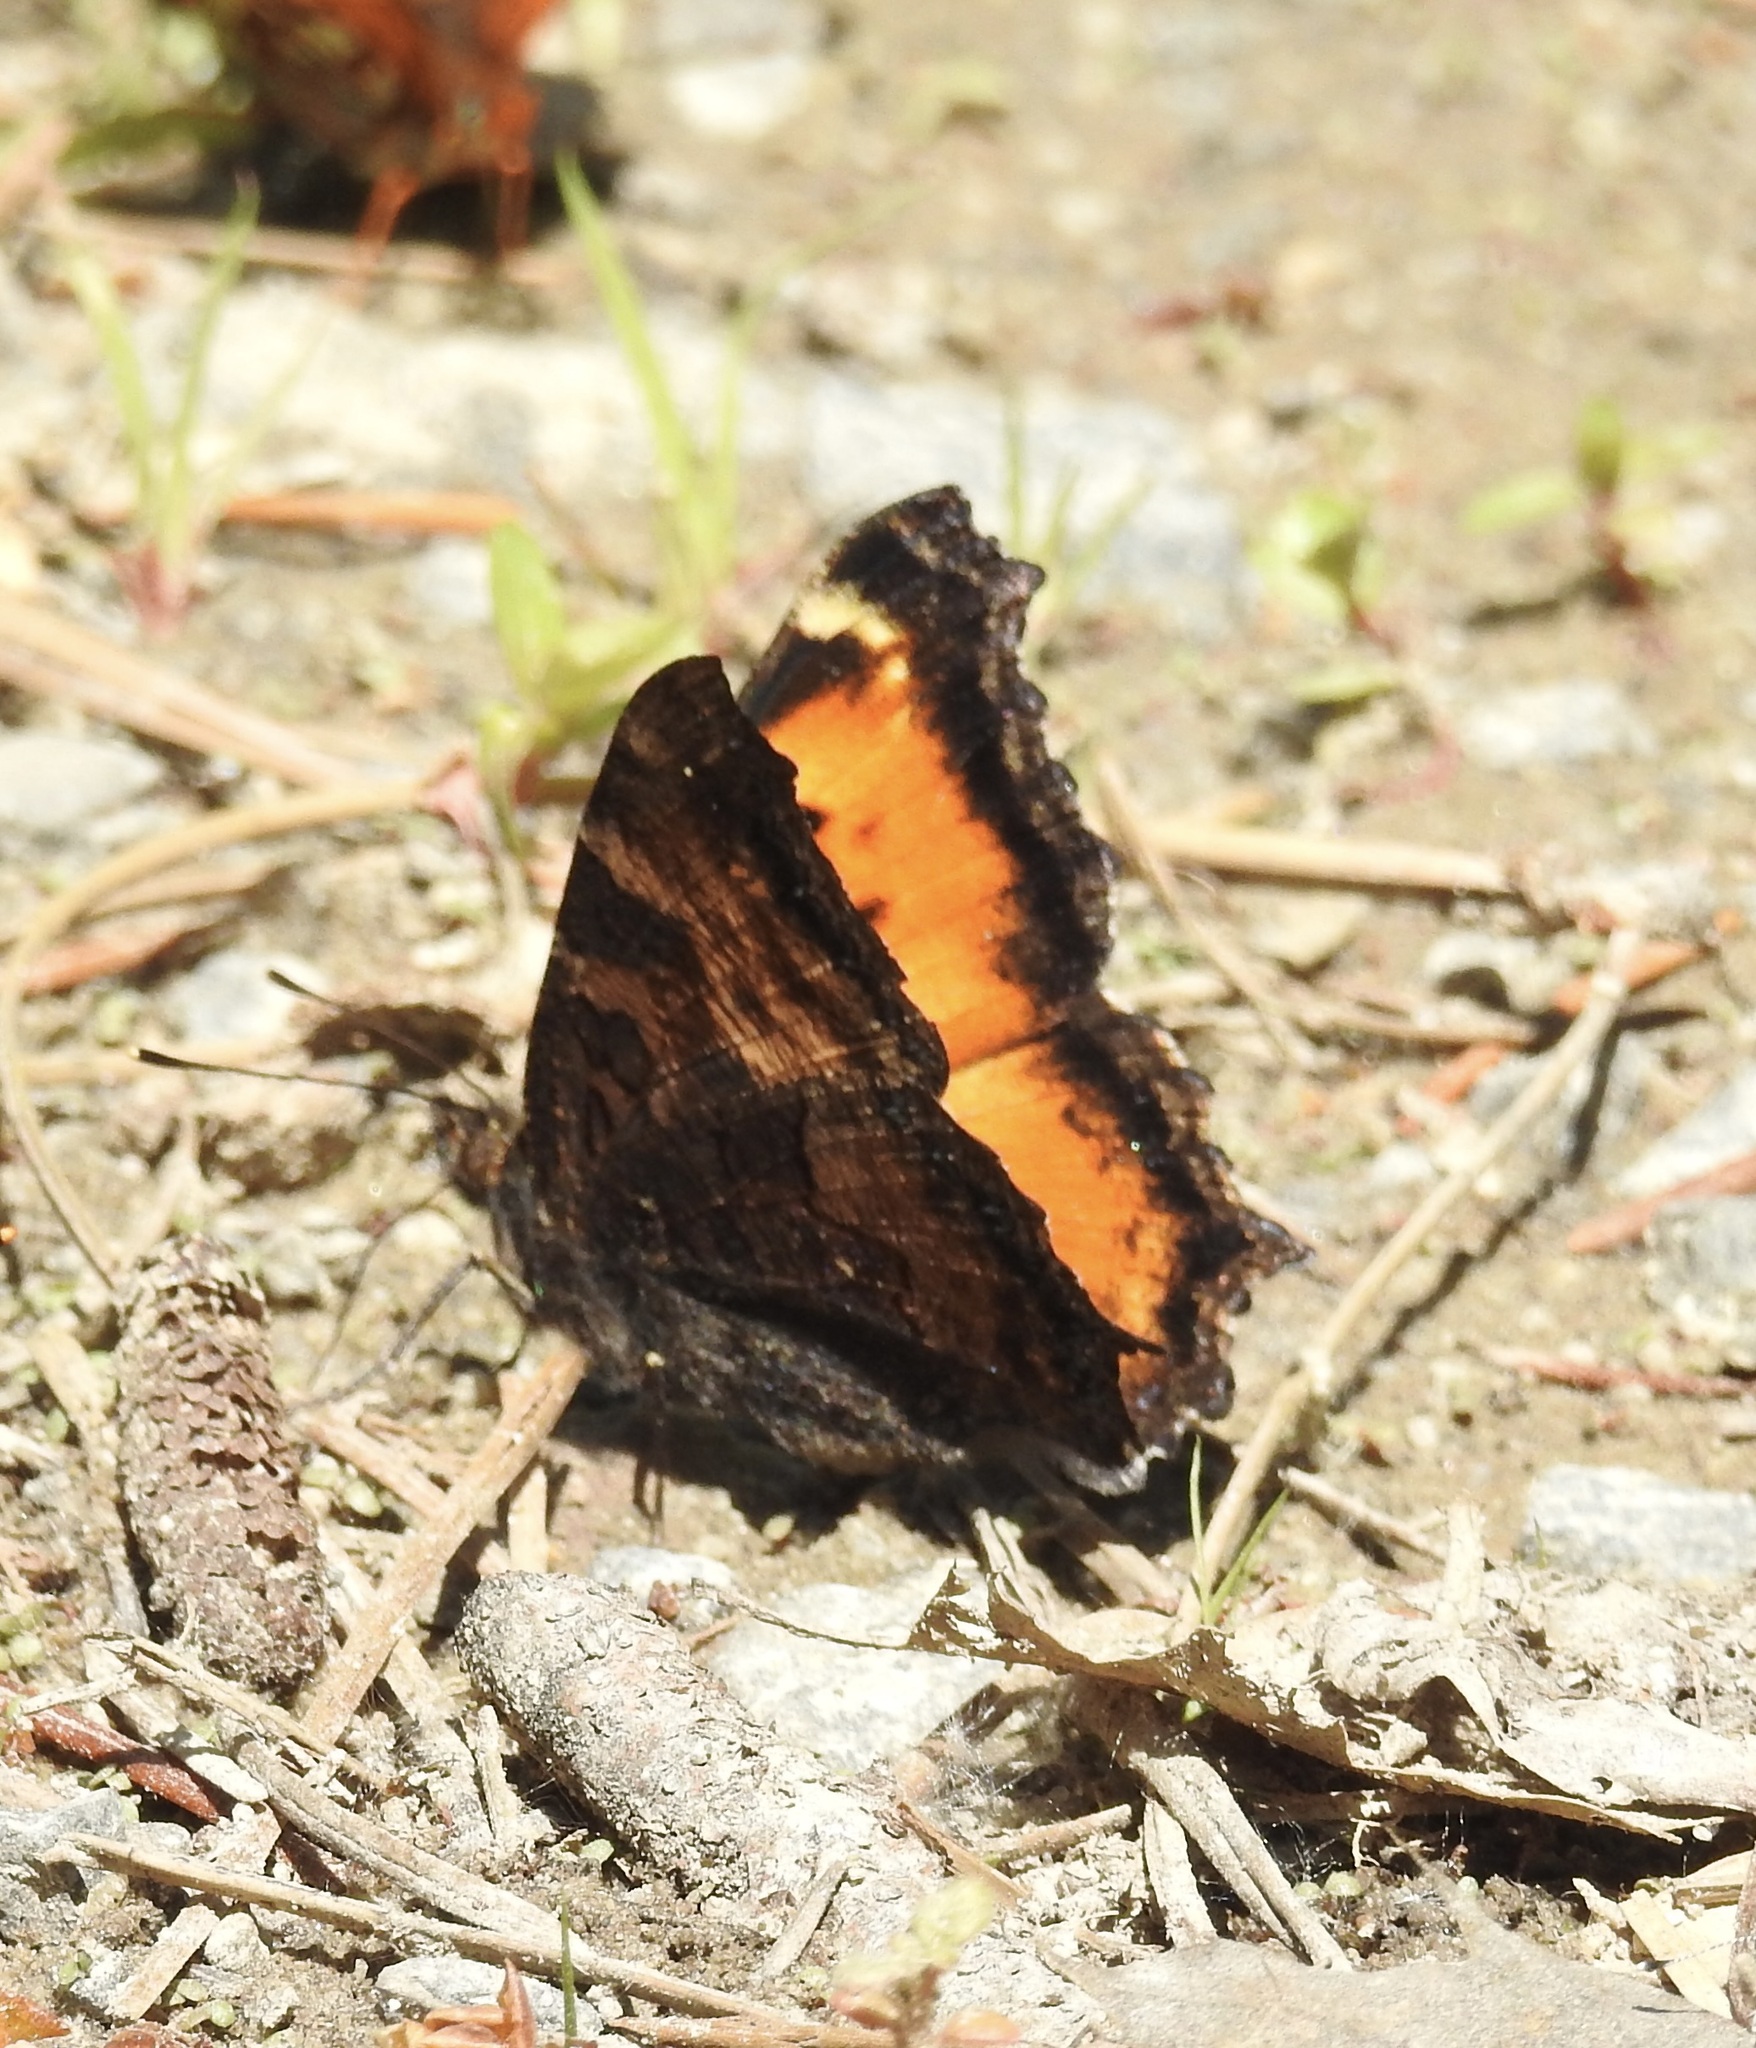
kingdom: Animalia
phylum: Arthropoda
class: Insecta
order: Lepidoptera
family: Nymphalidae
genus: Nymphalis
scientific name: Nymphalis californica
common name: California tortoiseshell
